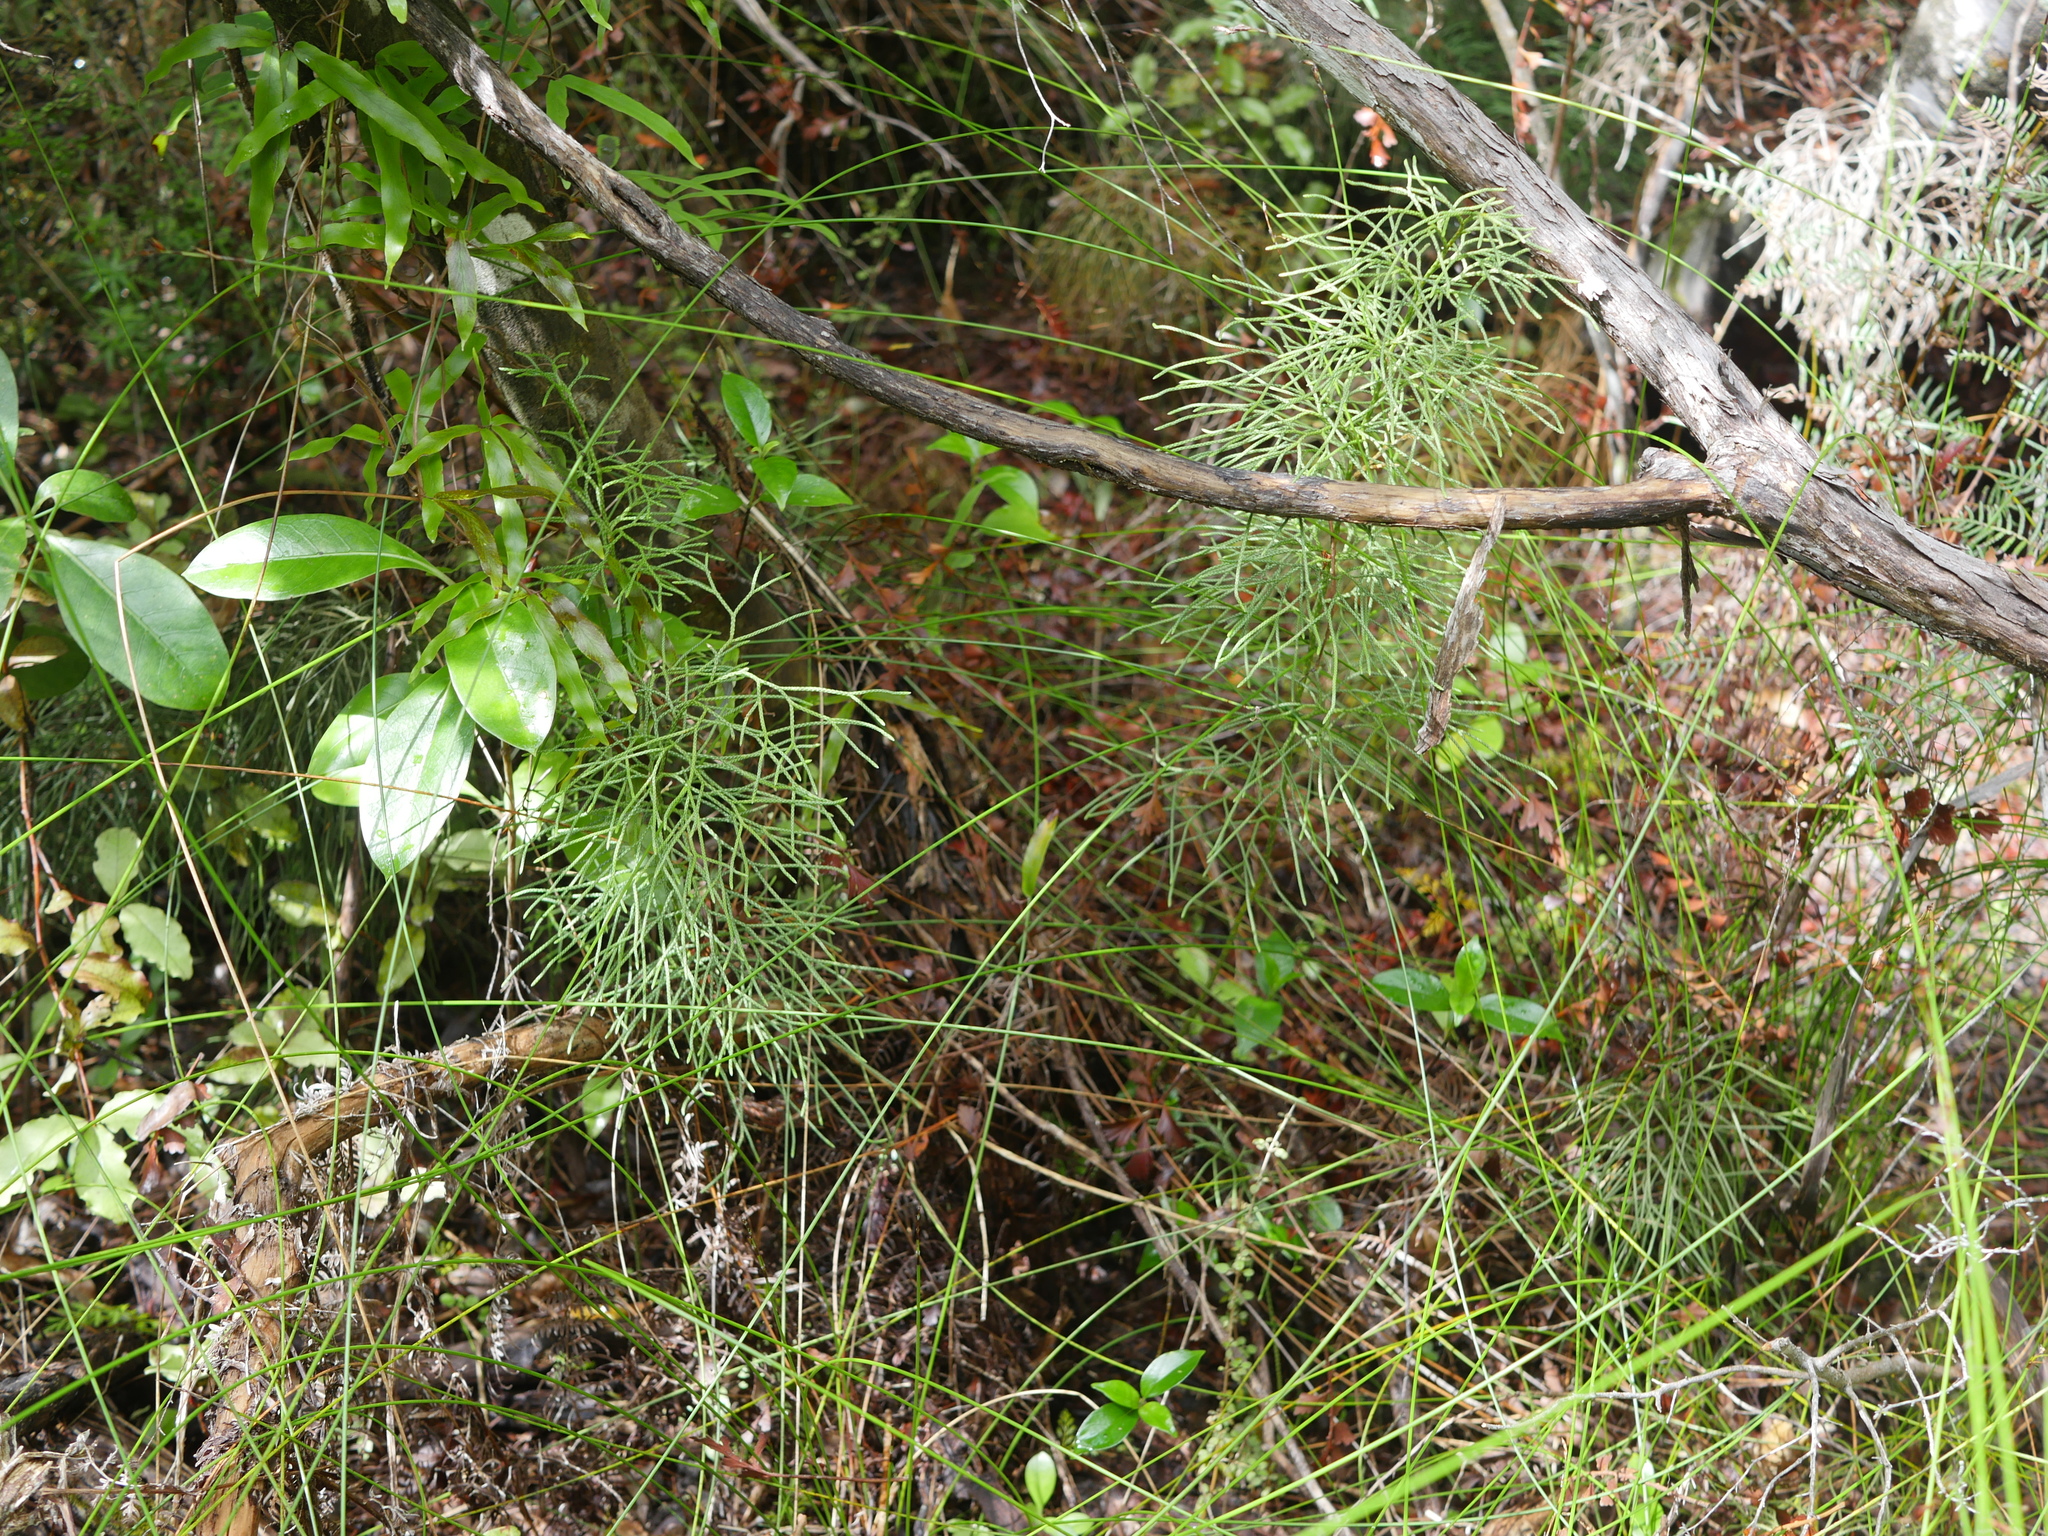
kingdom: Plantae
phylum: Tracheophyta
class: Lycopodiopsida
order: Lycopodiales
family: Lycopodiaceae
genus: Pseudolycopodium
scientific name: Pseudolycopodium densum
